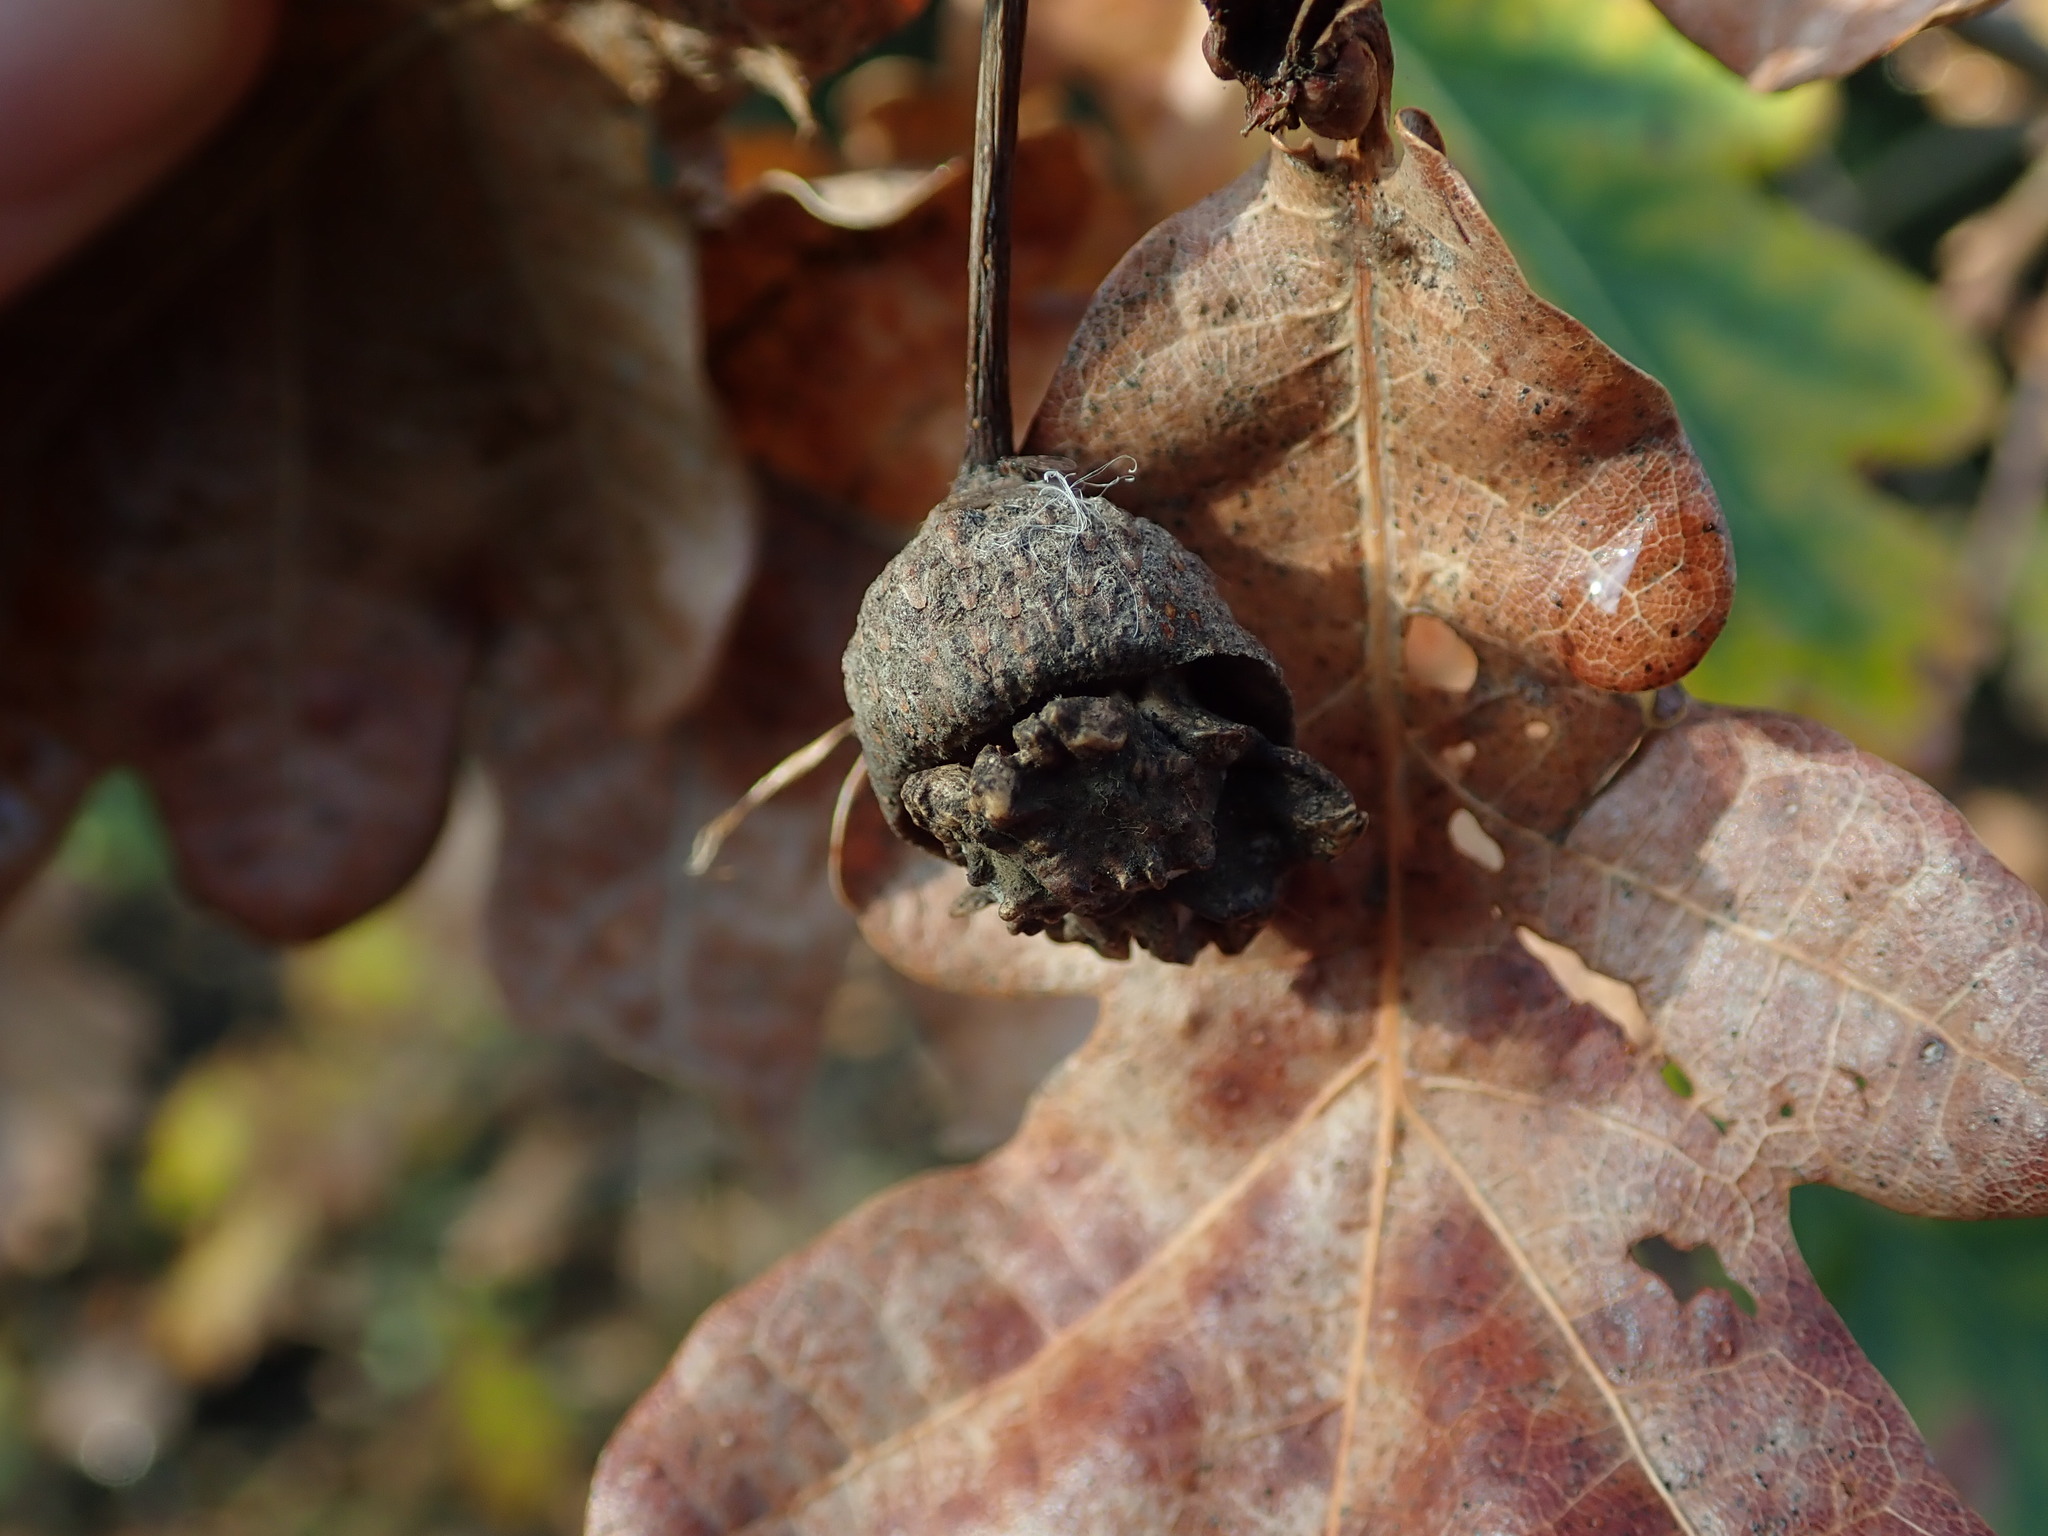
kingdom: Animalia
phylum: Arthropoda
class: Insecta
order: Hymenoptera
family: Cynipidae
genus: Andricus
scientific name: Andricus quercuscalicis
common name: Knopper gall
